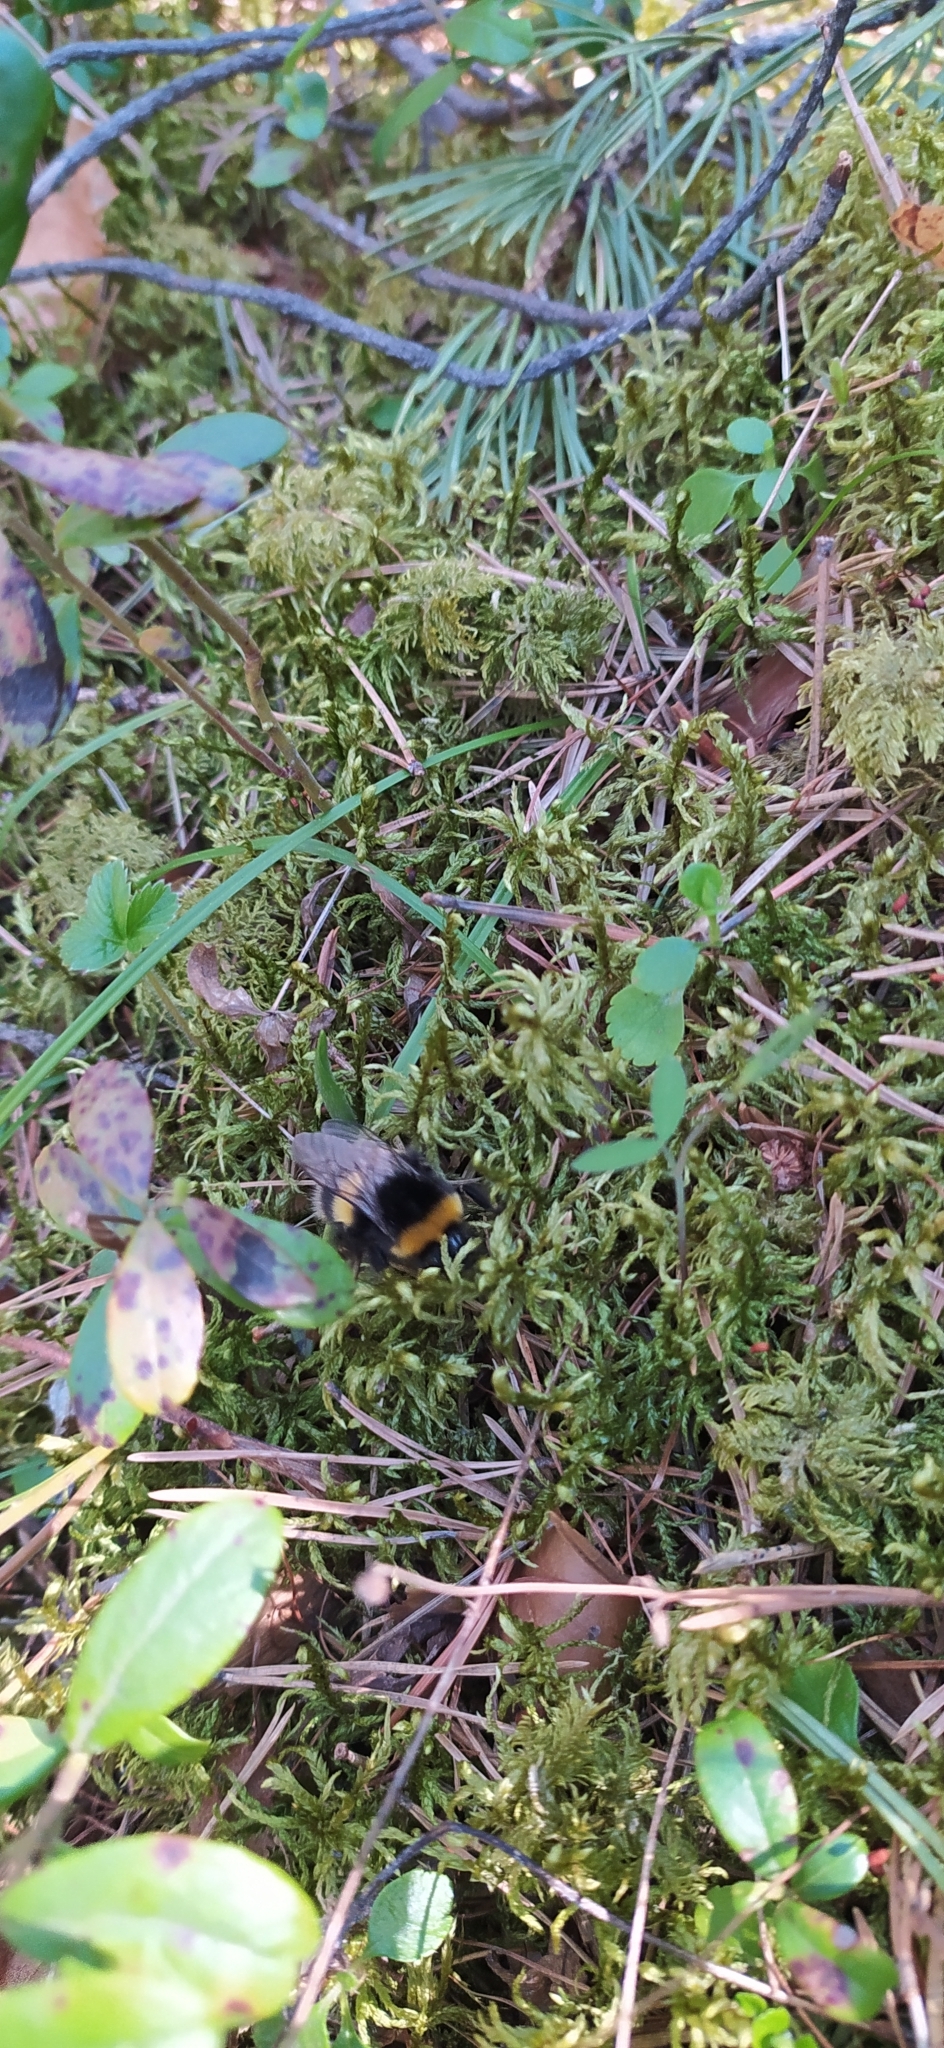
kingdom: Animalia
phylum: Arthropoda
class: Insecta
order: Hymenoptera
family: Apidae
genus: Bombus
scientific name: Bombus
